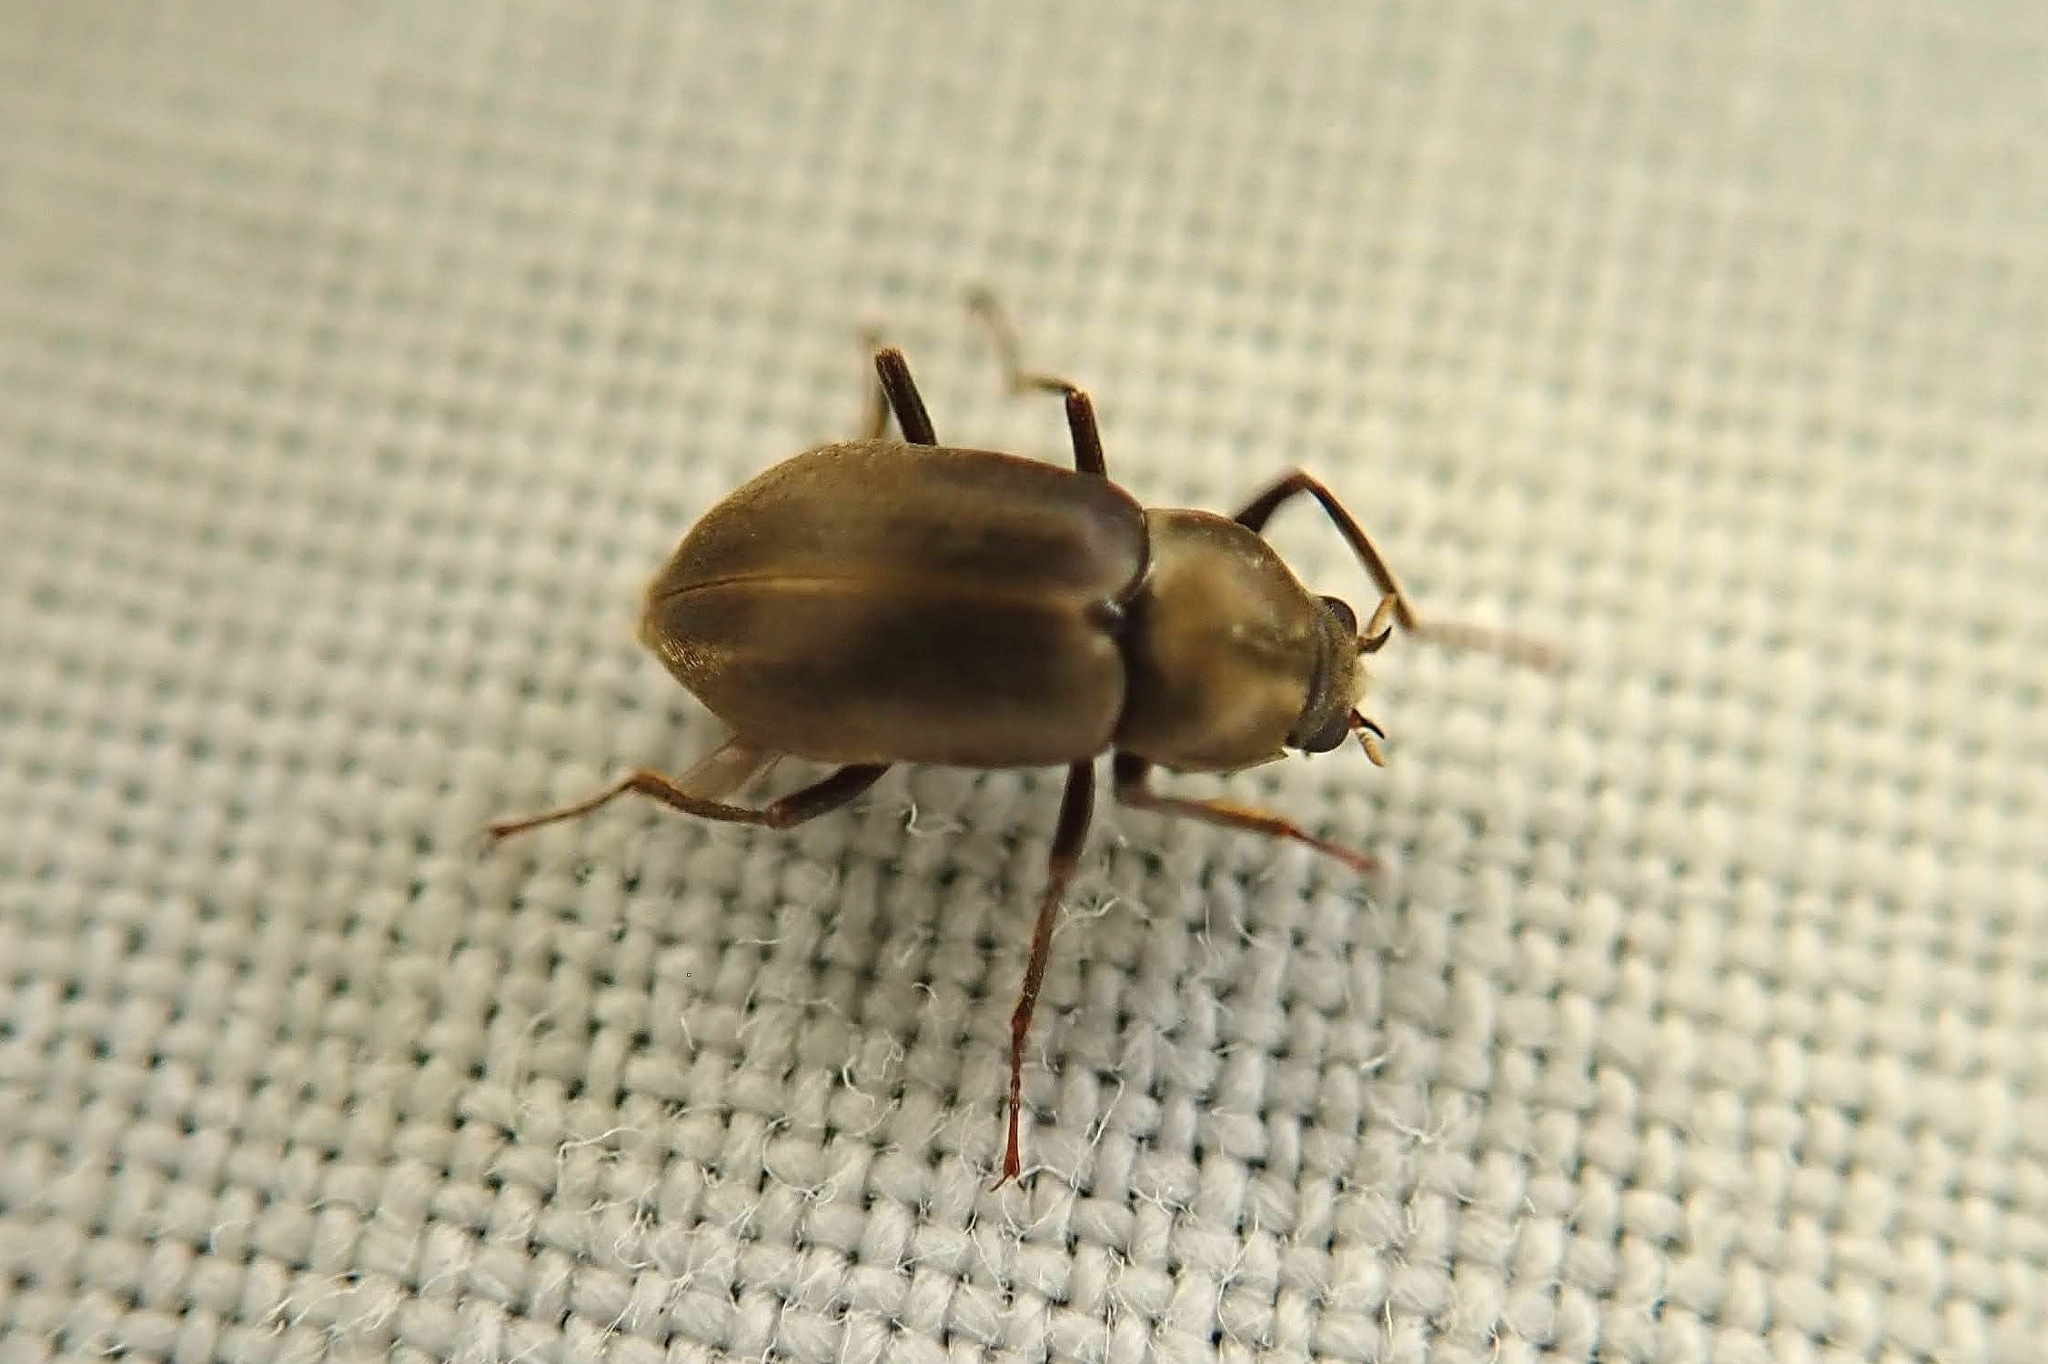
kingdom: Animalia
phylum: Arthropoda
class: Insecta
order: Coleoptera
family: Dryopidae
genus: Helichus
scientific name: Helichus lithophilus
